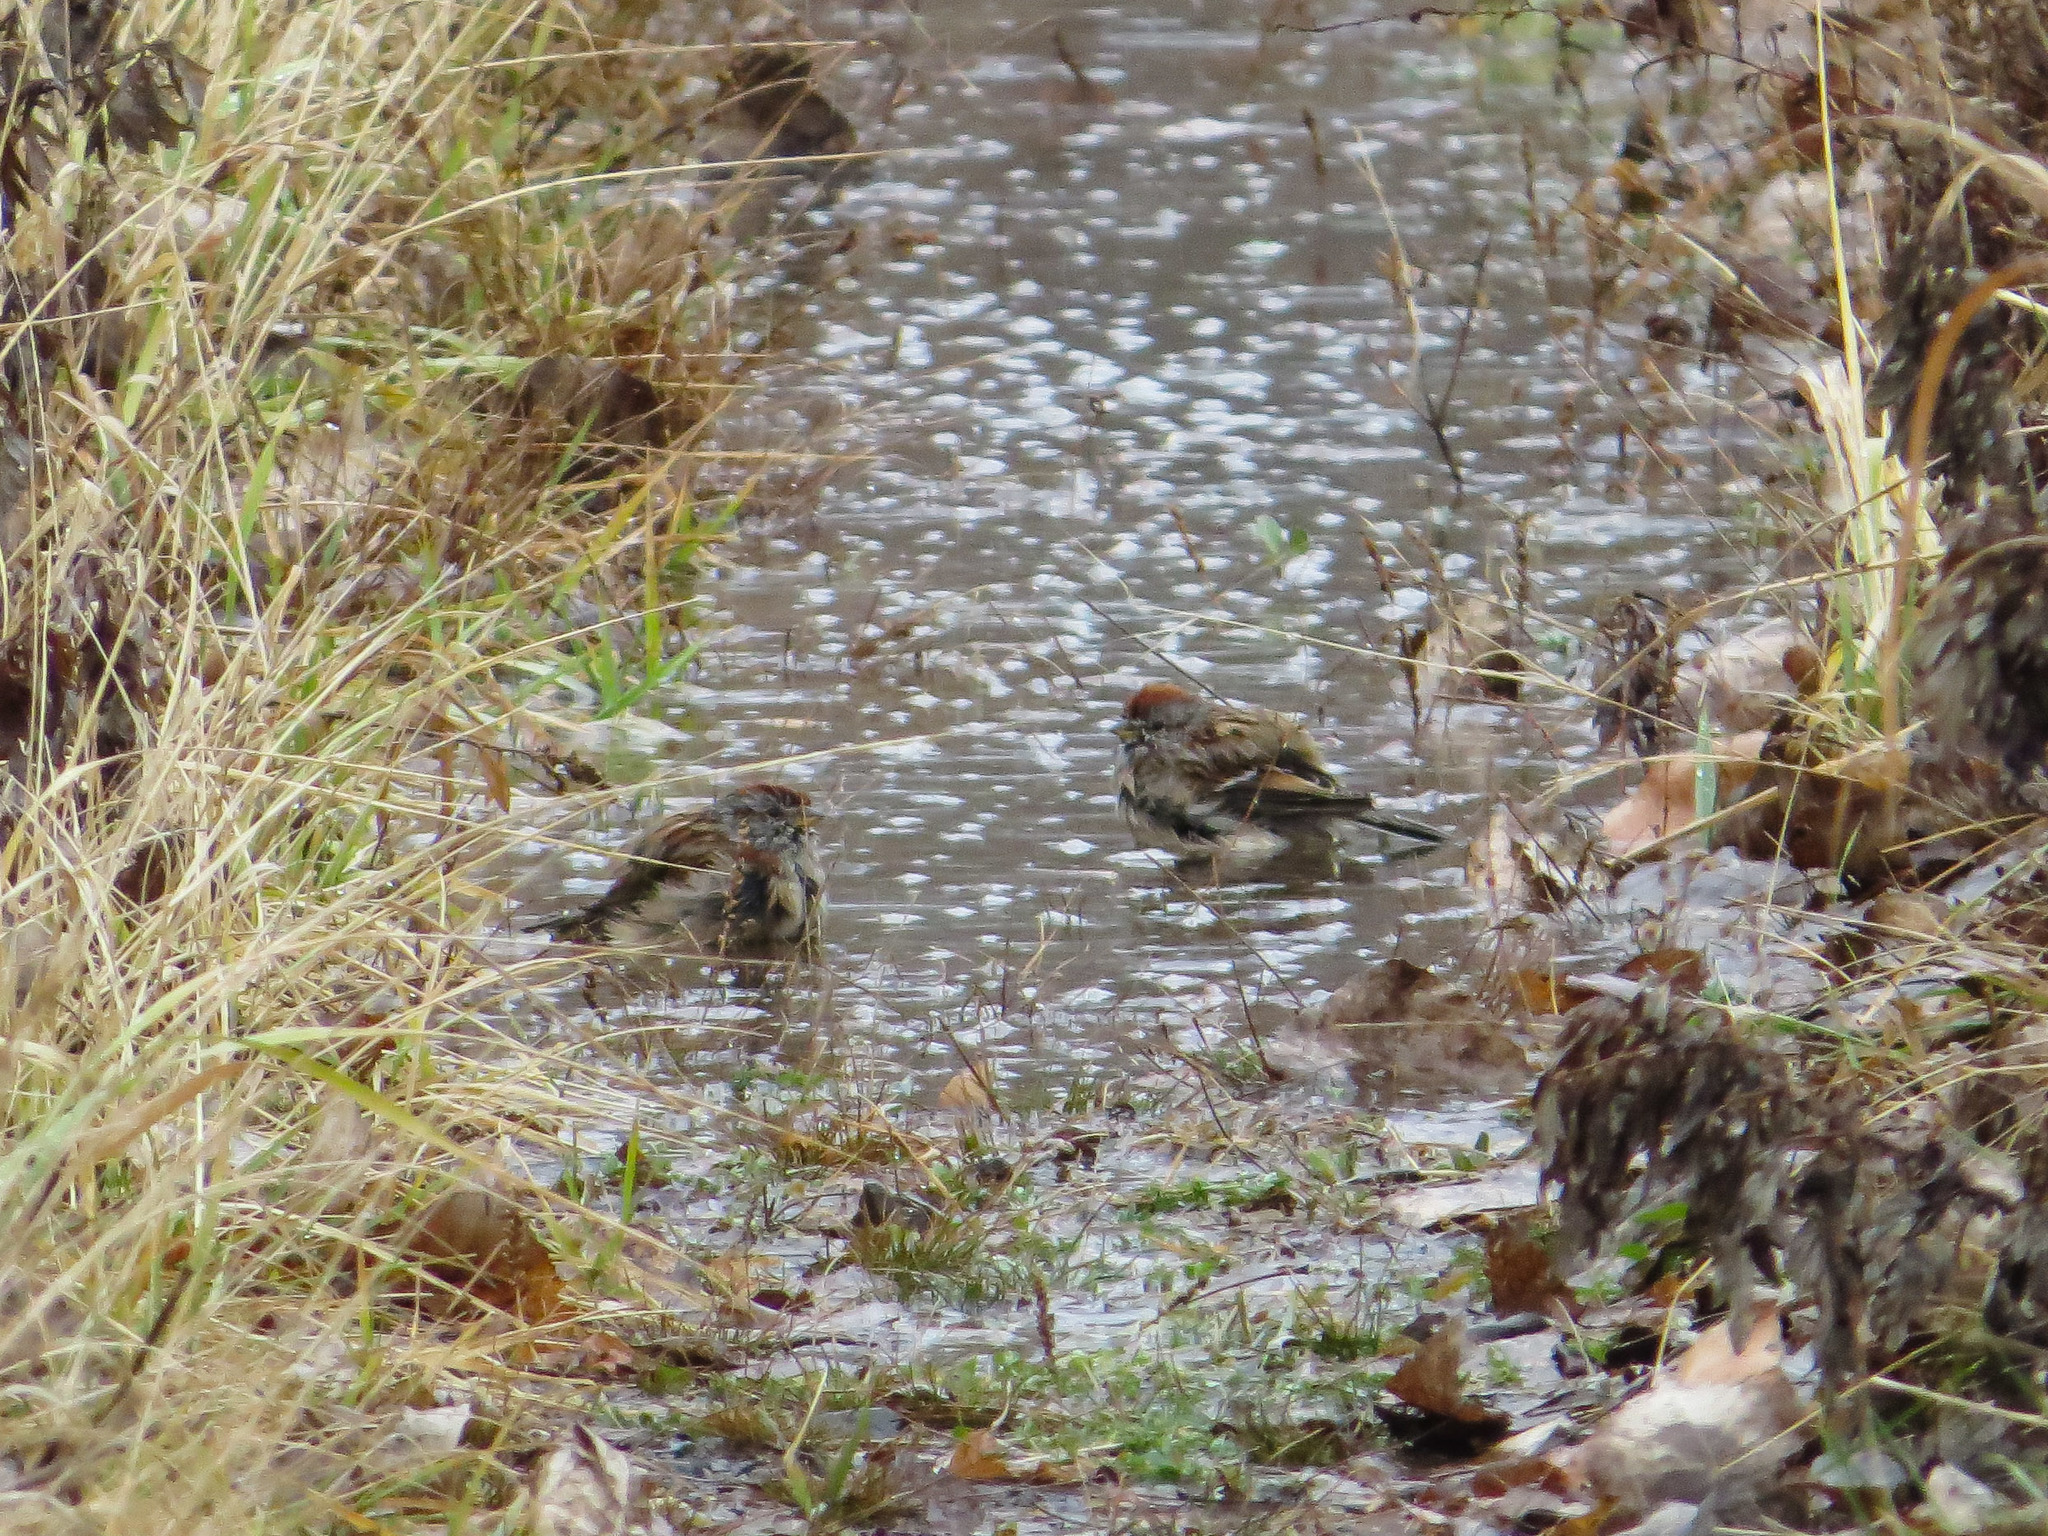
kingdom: Animalia
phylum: Chordata
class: Aves
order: Passeriformes
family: Passerellidae
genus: Spizelloides
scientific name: Spizelloides arborea
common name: American tree sparrow
